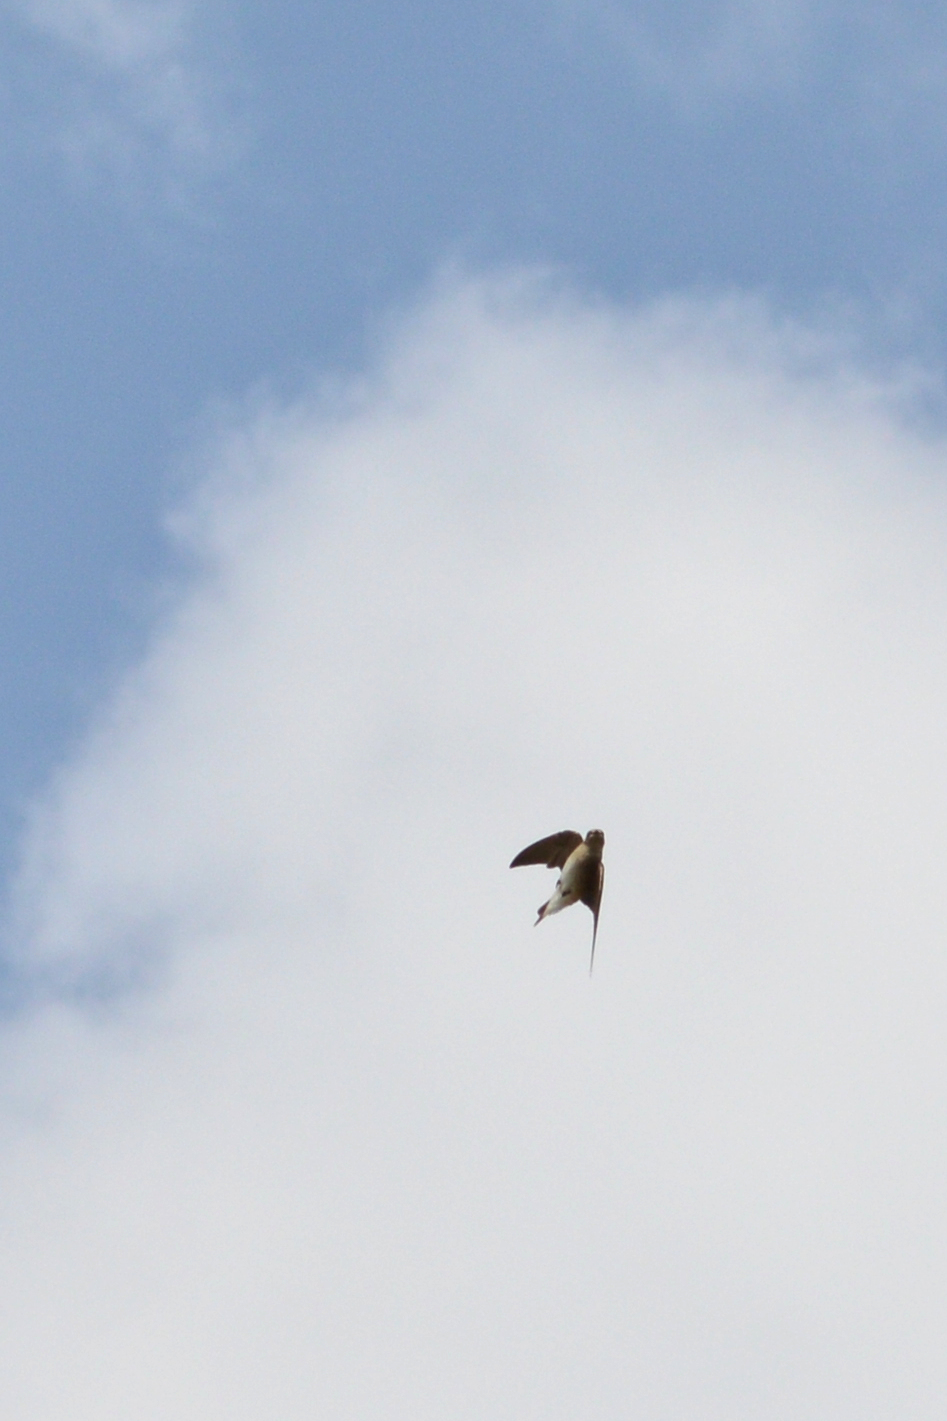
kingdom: Animalia
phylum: Chordata
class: Aves
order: Passeriformes
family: Hirundinidae
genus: Stelgidopteryx
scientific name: Stelgidopteryx serripennis
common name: Northern rough-winged swallow
